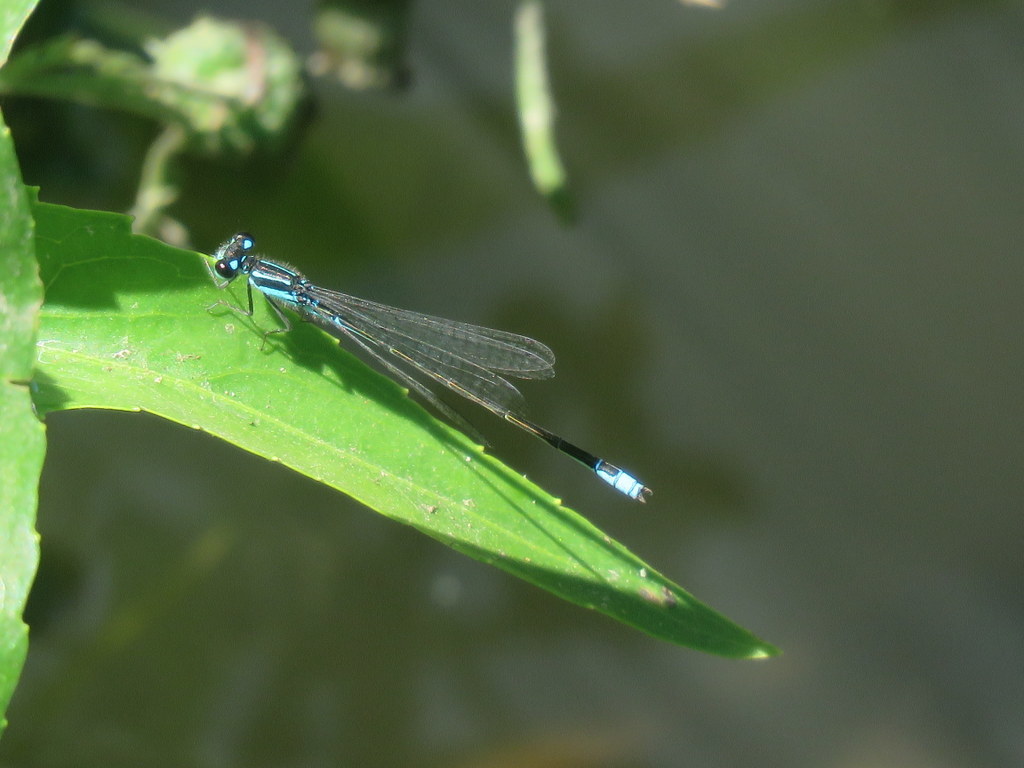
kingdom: Animalia
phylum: Arthropoda
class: Insecta
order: Odonata
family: Coenagrionidae
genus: Homeoura
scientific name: Homeoura chelifera
